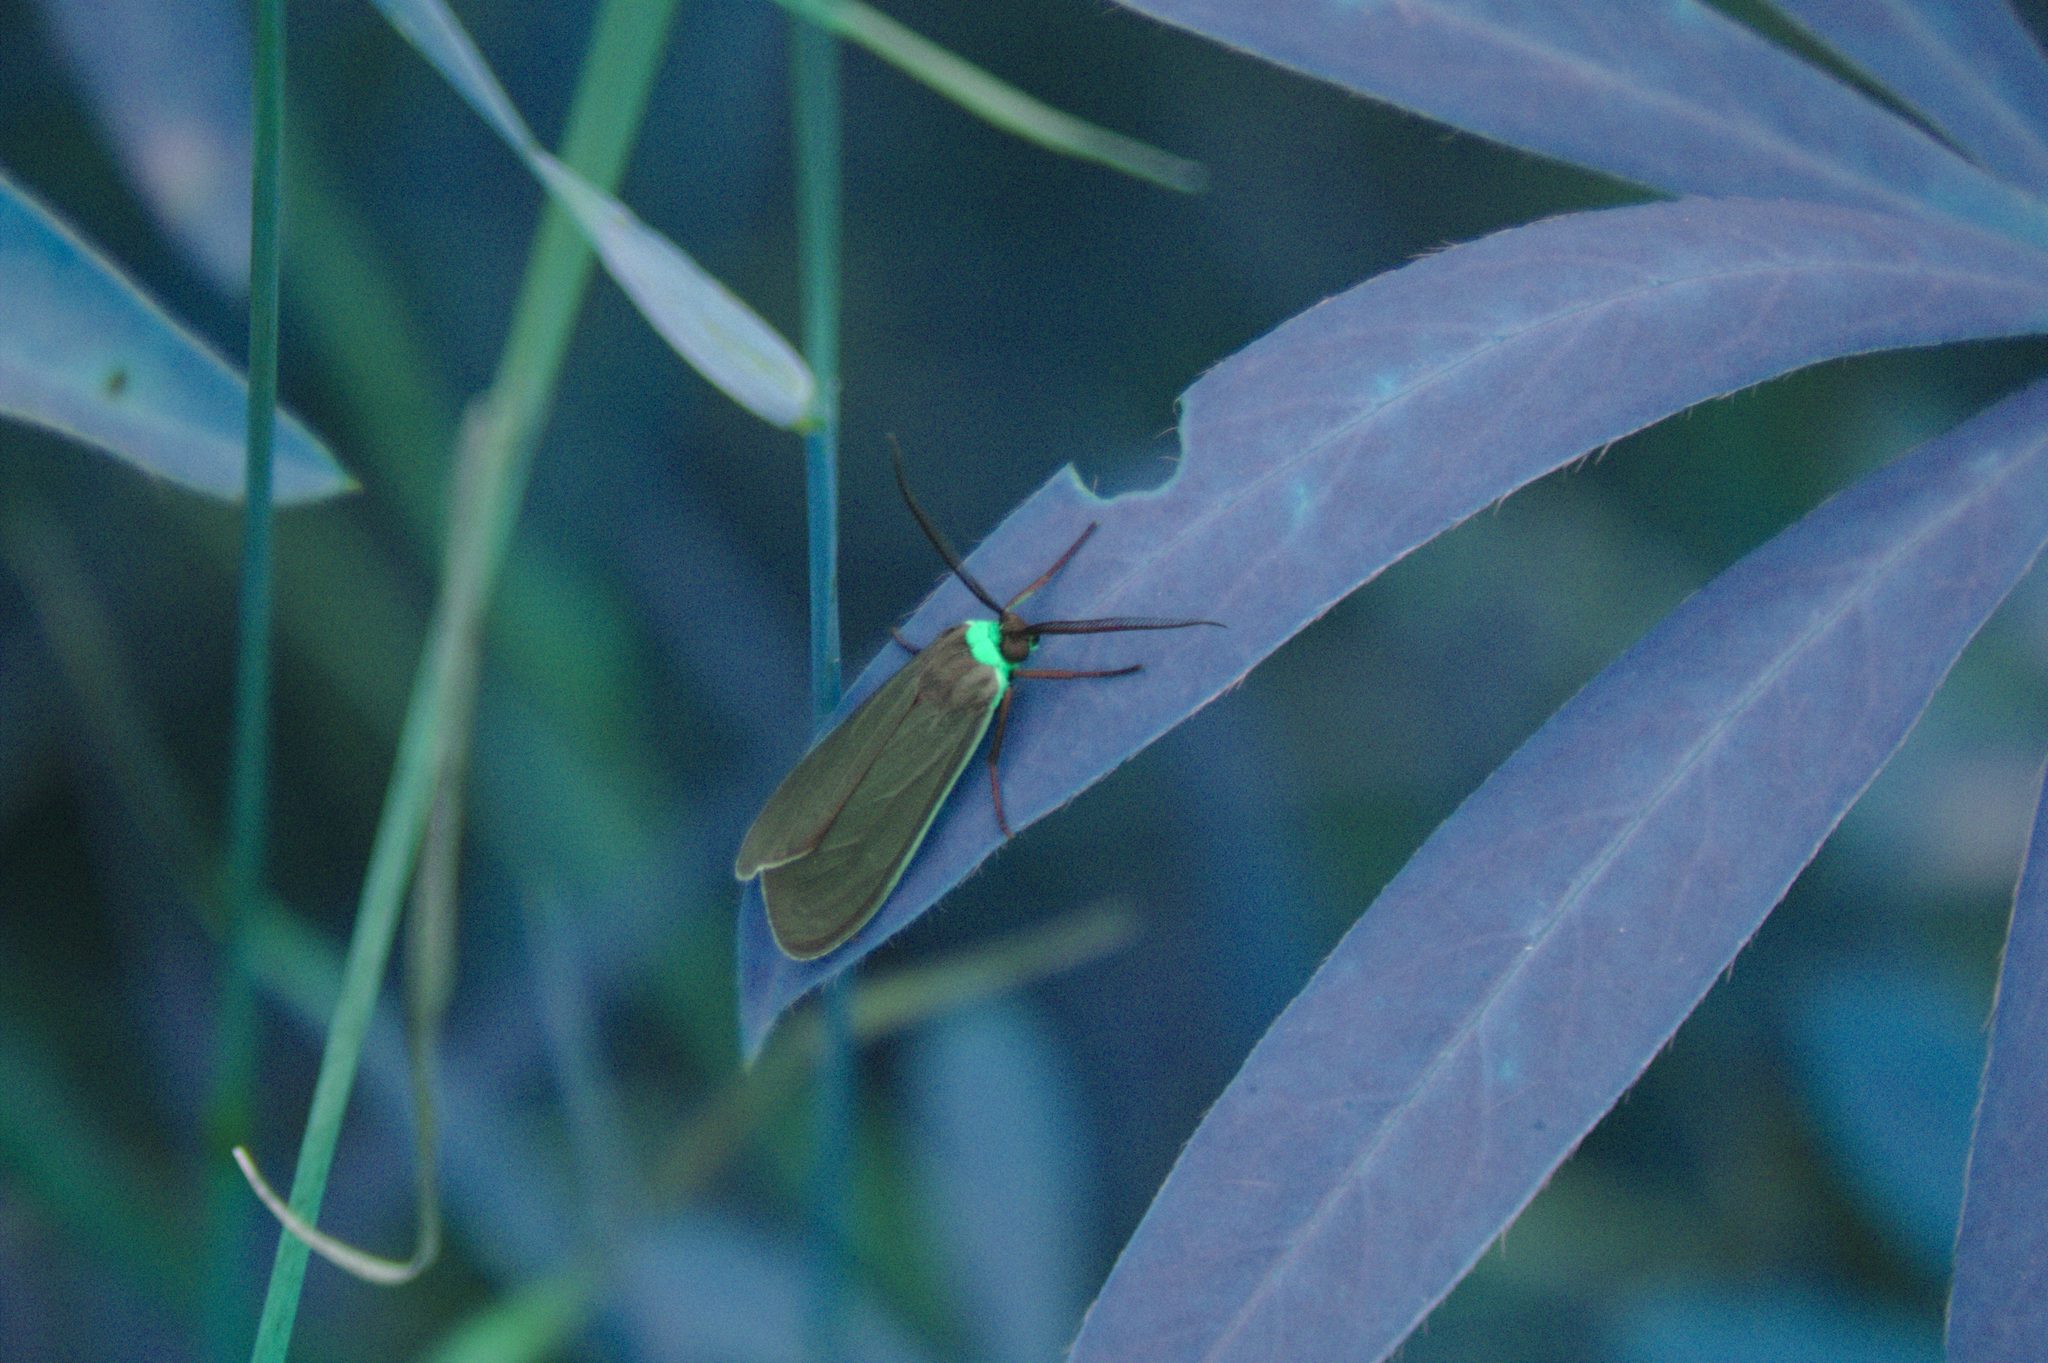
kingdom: Animalia
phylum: Arthropoda
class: Insecta
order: Lepidoptera
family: Erebidae
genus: Cisseps
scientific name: Cisseps fulvicollis
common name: Yellow-collared scape moth
